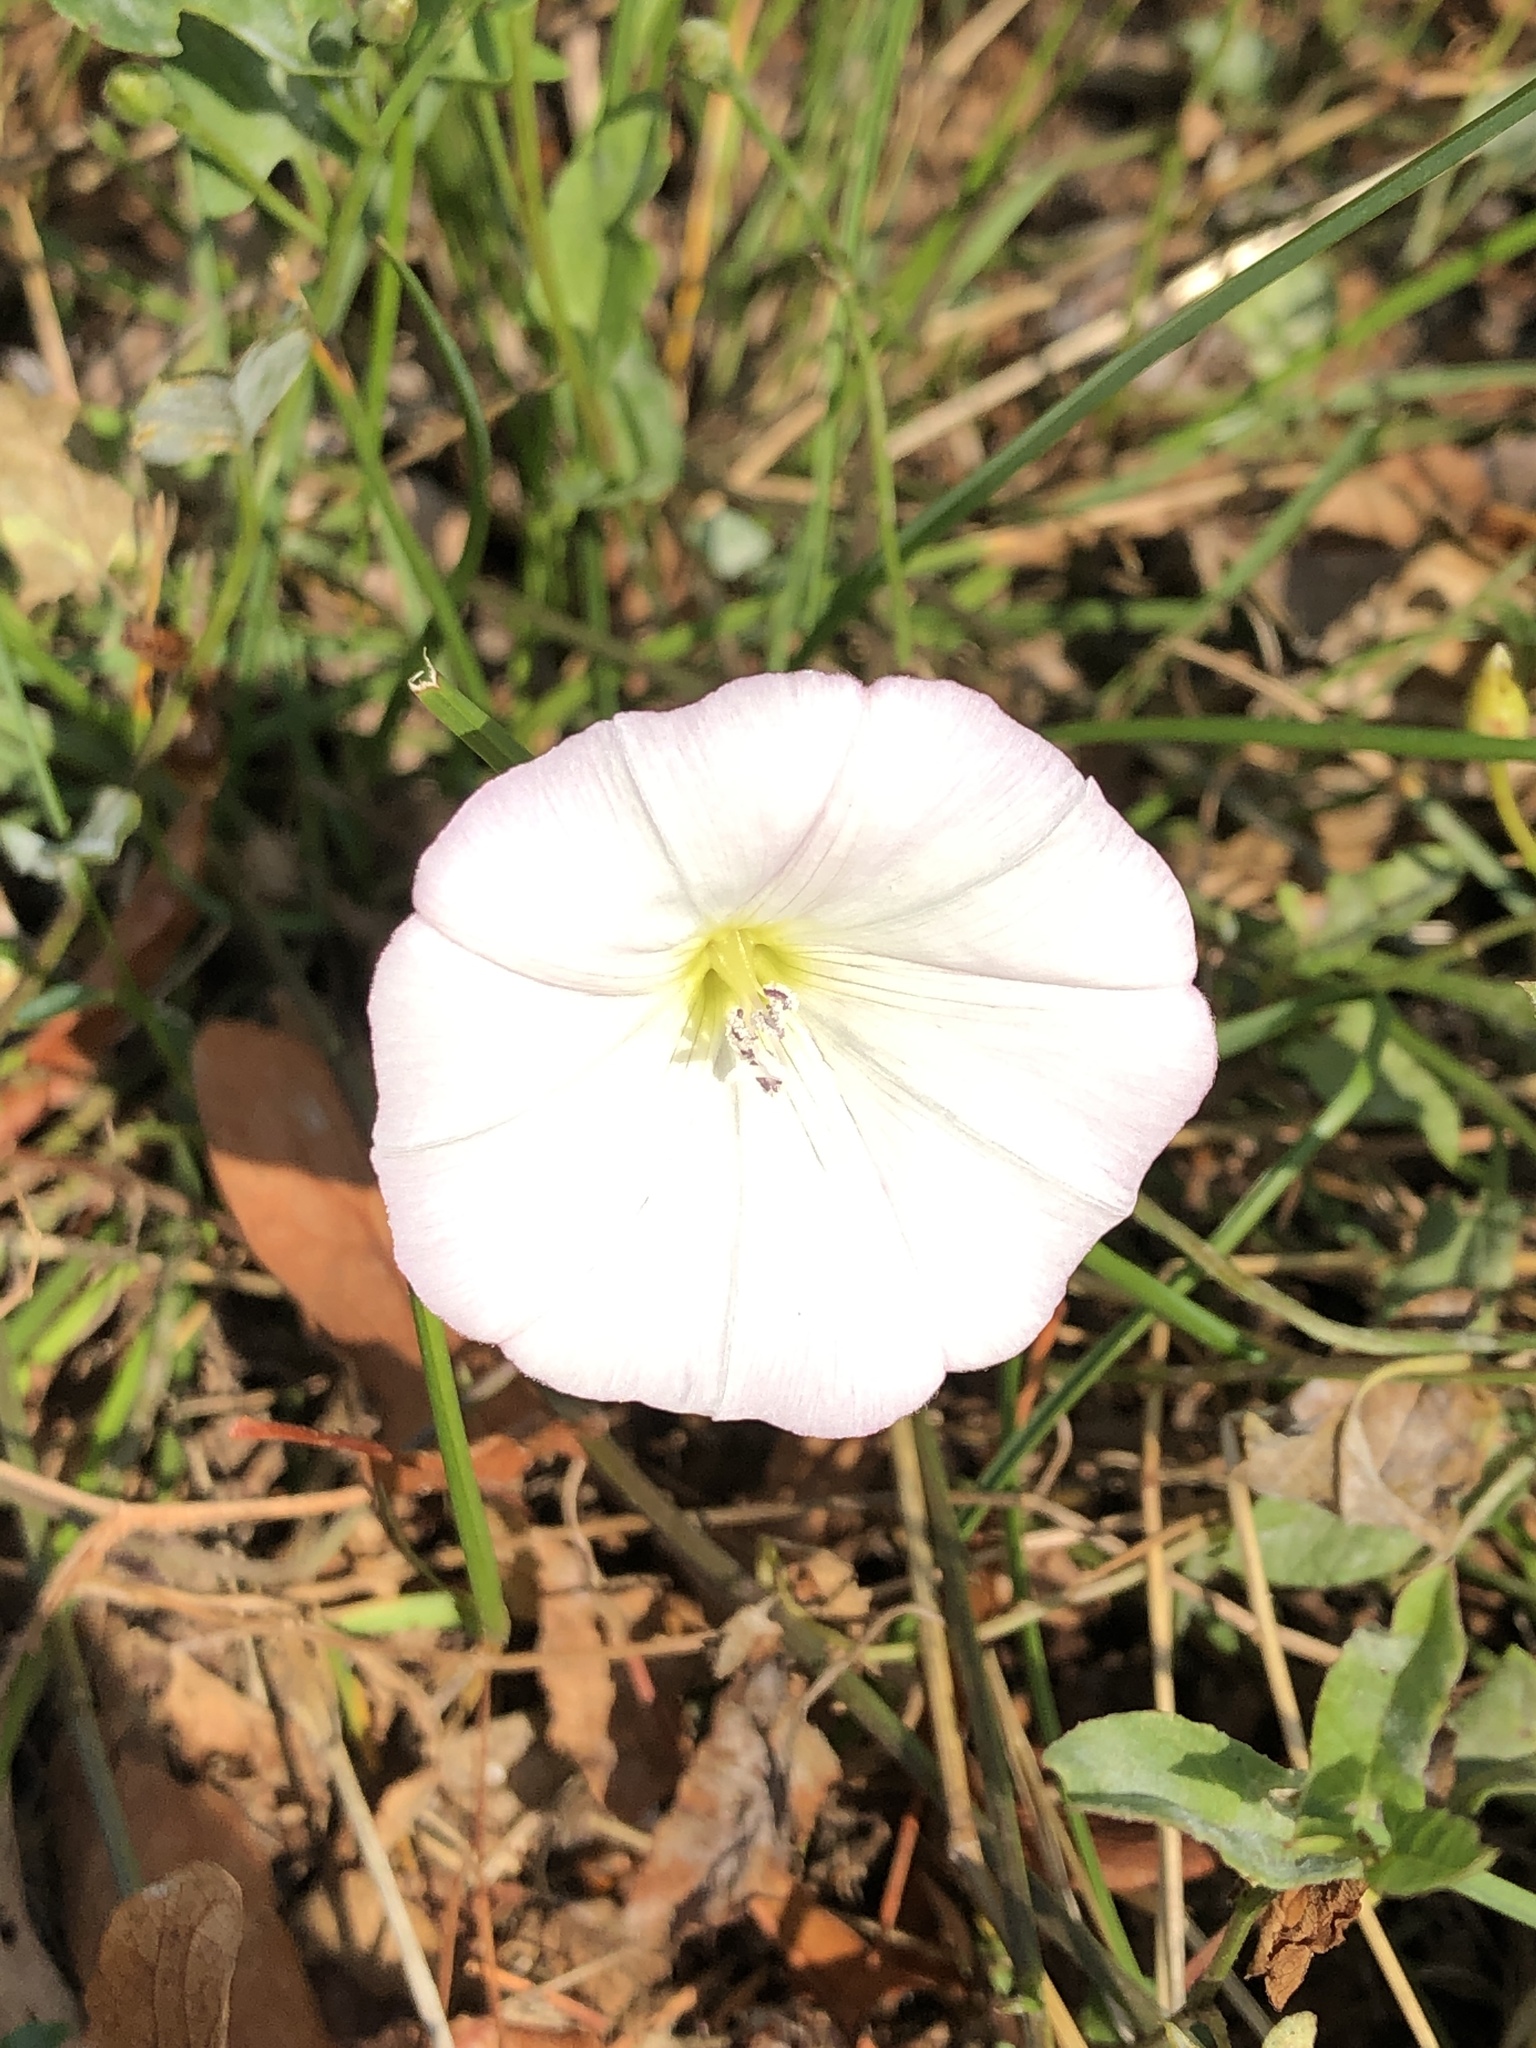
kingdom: Plantae
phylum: Tracheophyta
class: Magnoliopsida
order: Solanales
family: Convolvulaceae
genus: Convolvulus
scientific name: Convolvulus arvensis
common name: Field bindweed
